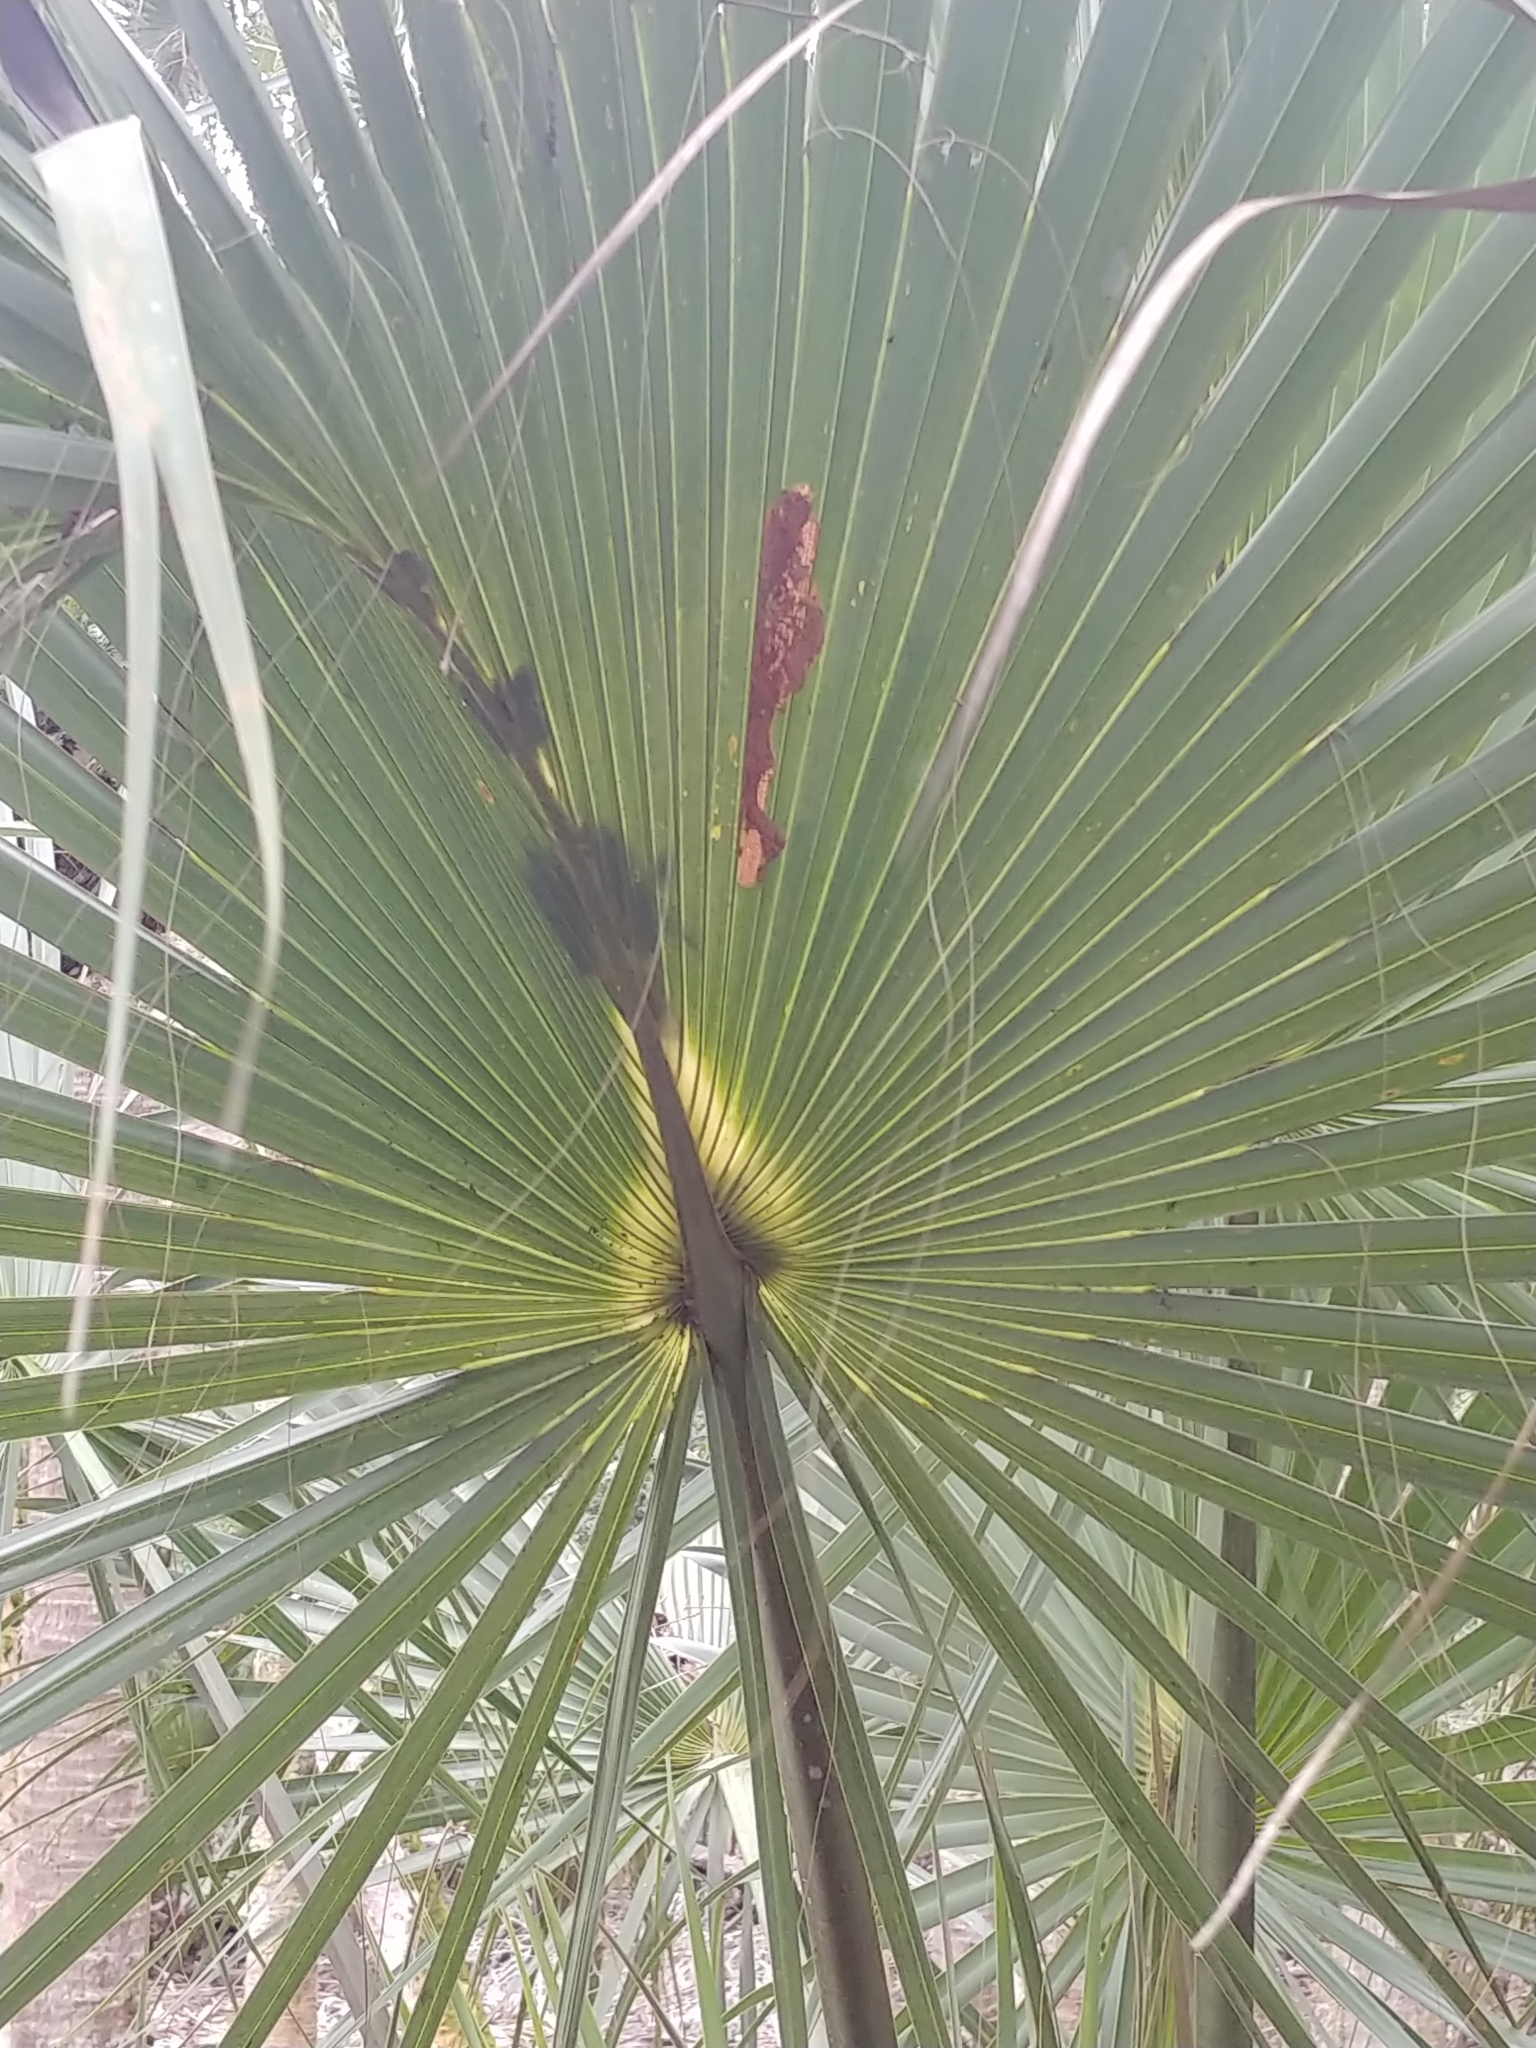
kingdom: Plantae
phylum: Tracheophyta
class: Liliopsida
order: Arecales
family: Arecaceae
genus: Sabal
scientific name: Sabal palmetto
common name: Blue palmetto
